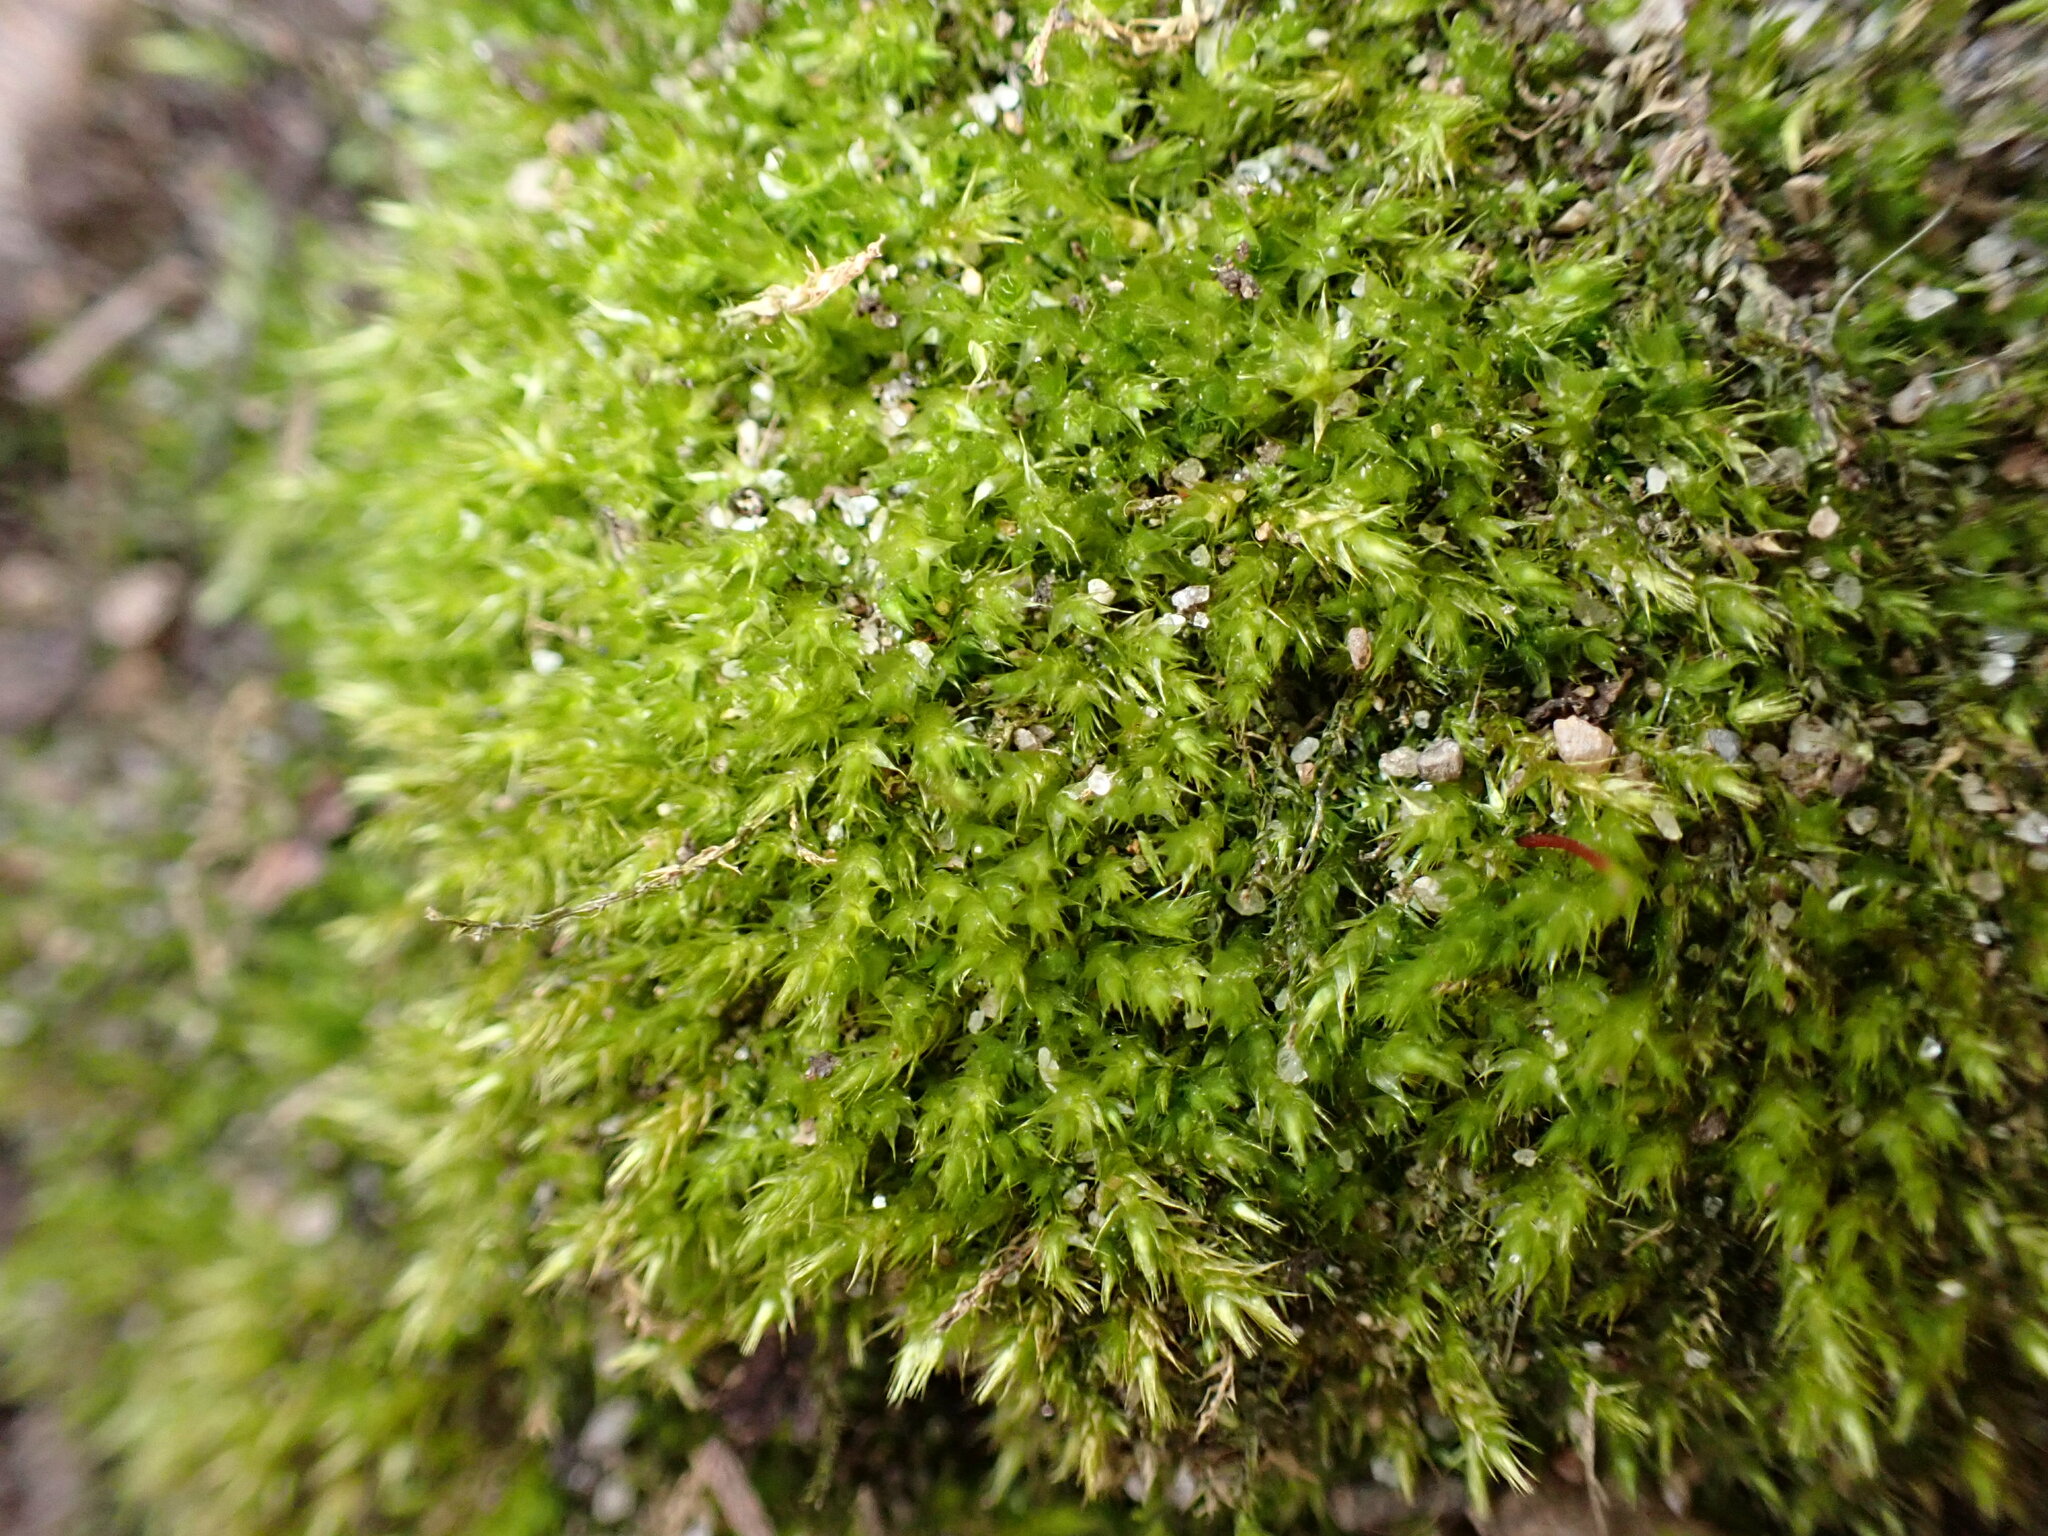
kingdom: Plantae
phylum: Bryophyta
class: Bryopsida
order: Hypnales
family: Amblystegiaceae
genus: Amblystegium
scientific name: Amblystegium serpens
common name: Jurkatzka's feather moss
